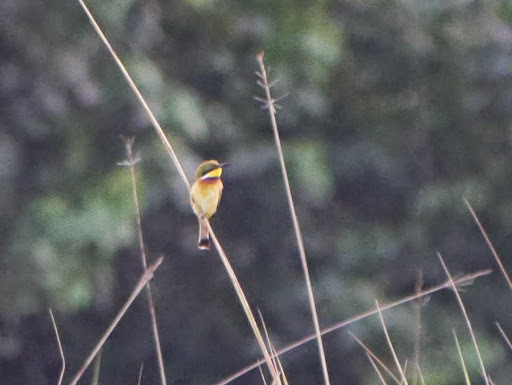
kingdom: Animalia
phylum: Chordata
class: Aves
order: Coraciiformes
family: Meropidae
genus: Merops
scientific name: Merops variegatus
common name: Blue-breasted bee-eater
